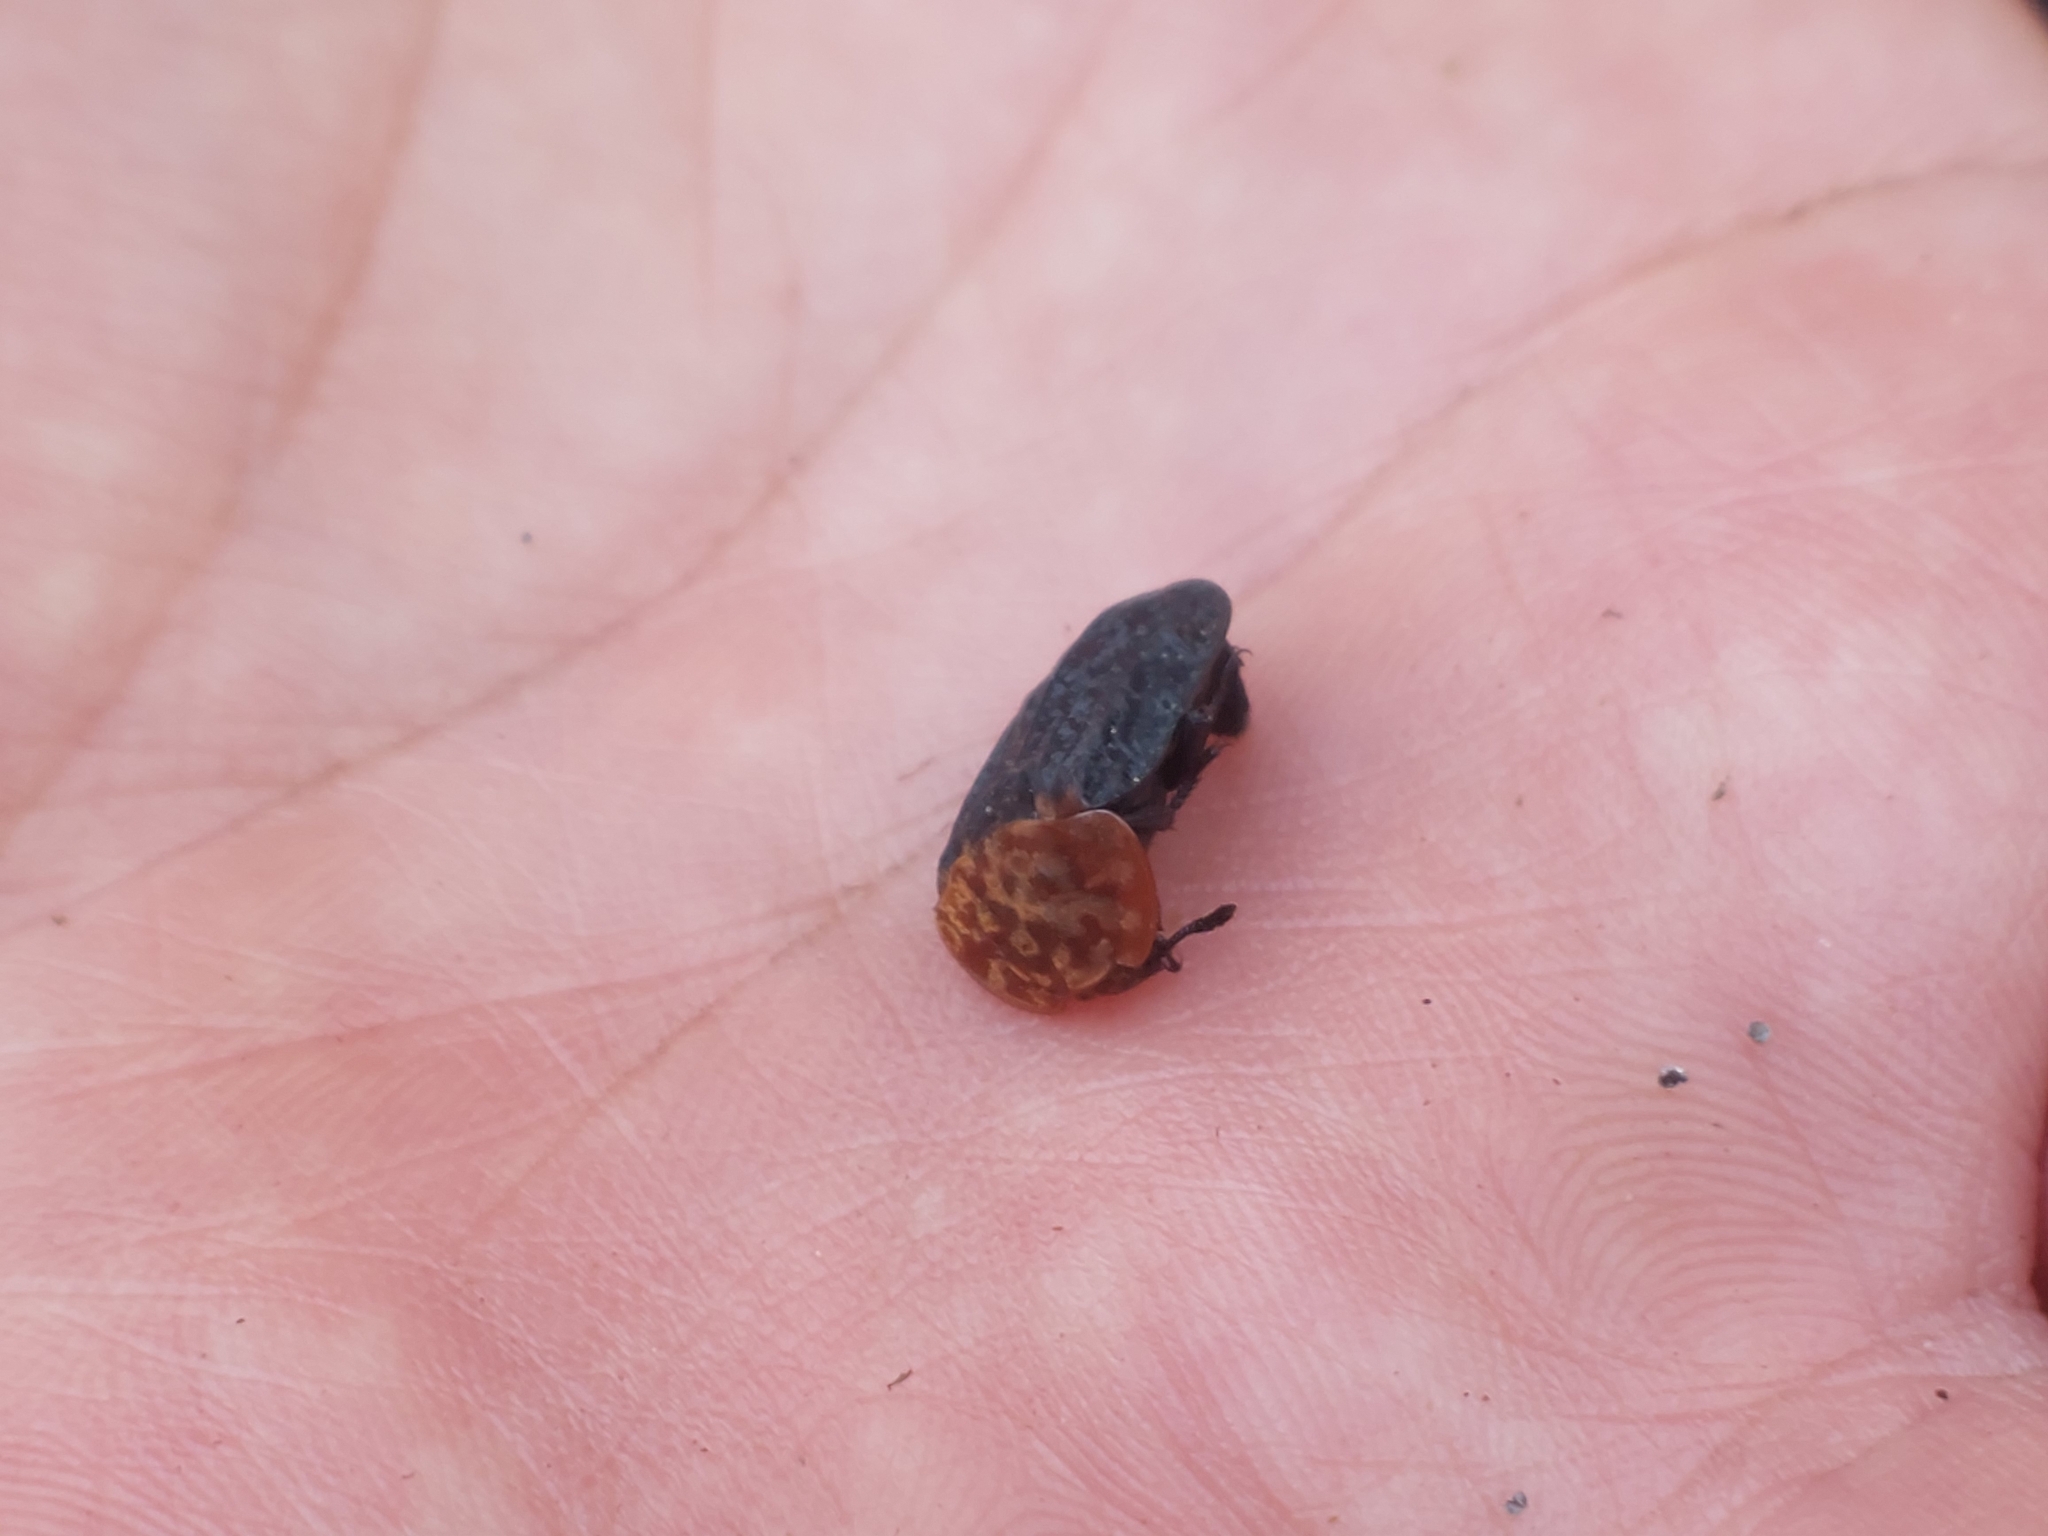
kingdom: Animalia
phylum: Arthropoda
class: Insecta
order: Coleoptera
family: Staphylinidae
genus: Oiceoptoma
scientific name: Oiceoptoma thoracicum
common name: Red-breasted carrion beetle
